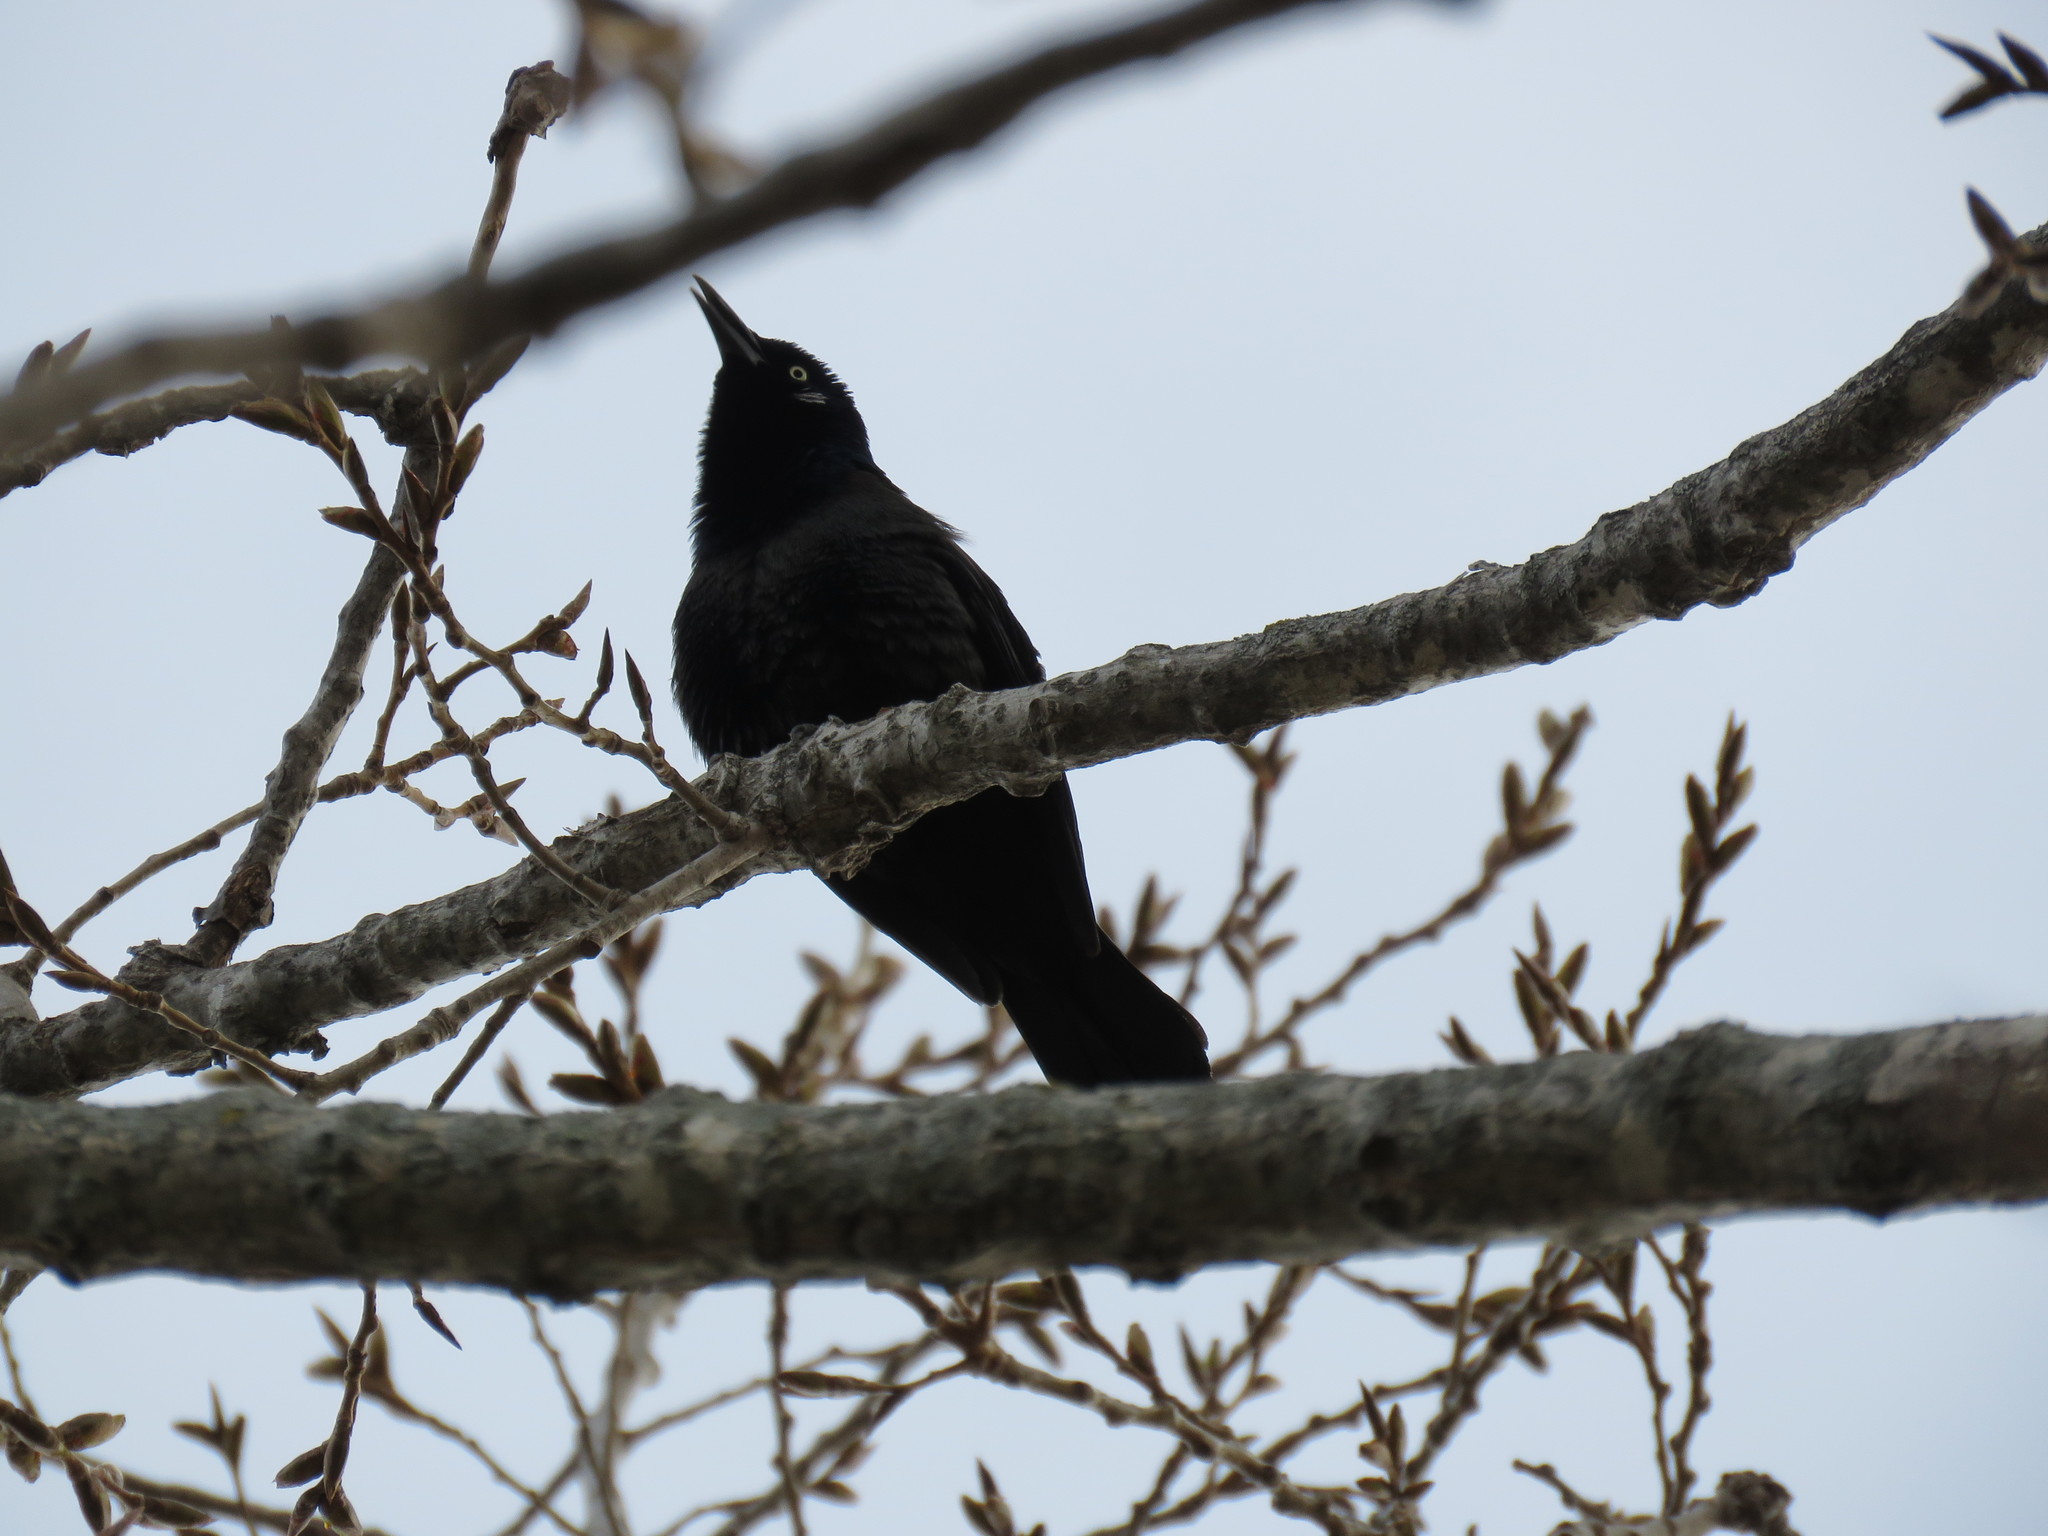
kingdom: Animalia
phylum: Chordata
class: Aves
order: Passeriformes
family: Icteridae
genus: Quiscalus
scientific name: Quiscalus quiscula
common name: Common grackle
